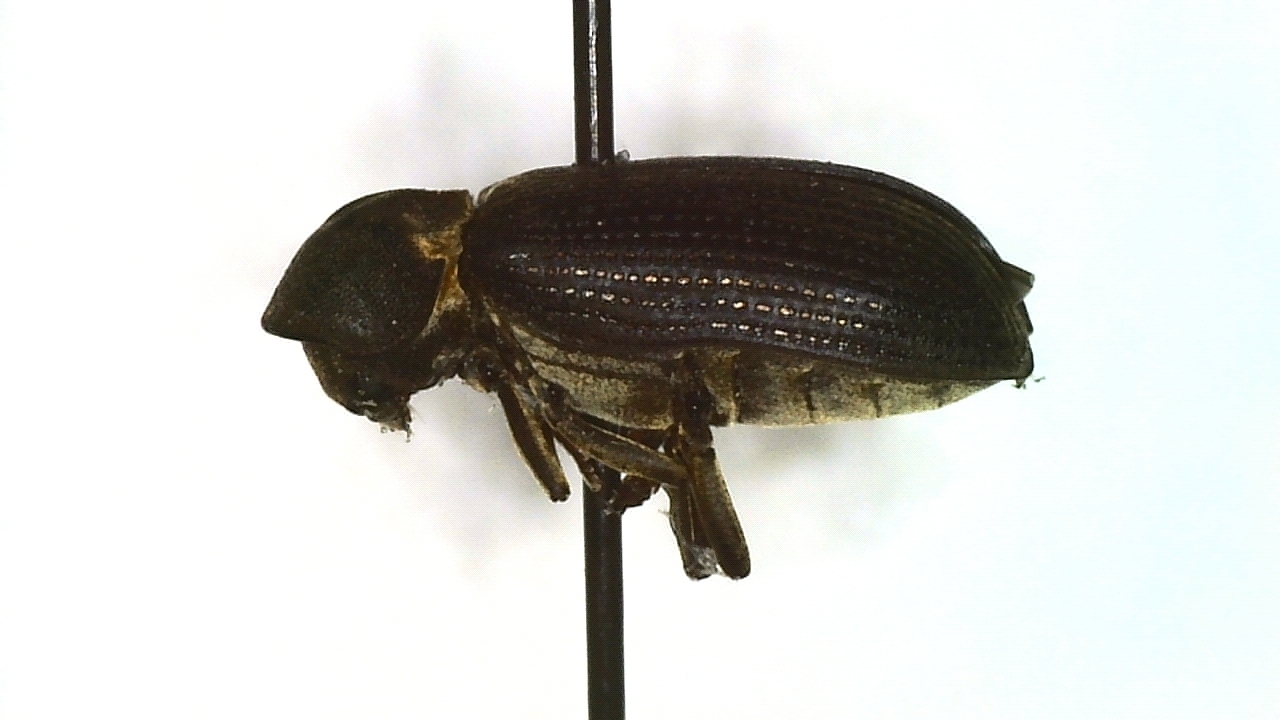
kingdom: Animalia
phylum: Arthropoda
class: Insecta
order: Coleoptera
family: Anobiidae
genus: Hadrobregmus
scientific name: Hadrobregmus pertinax
